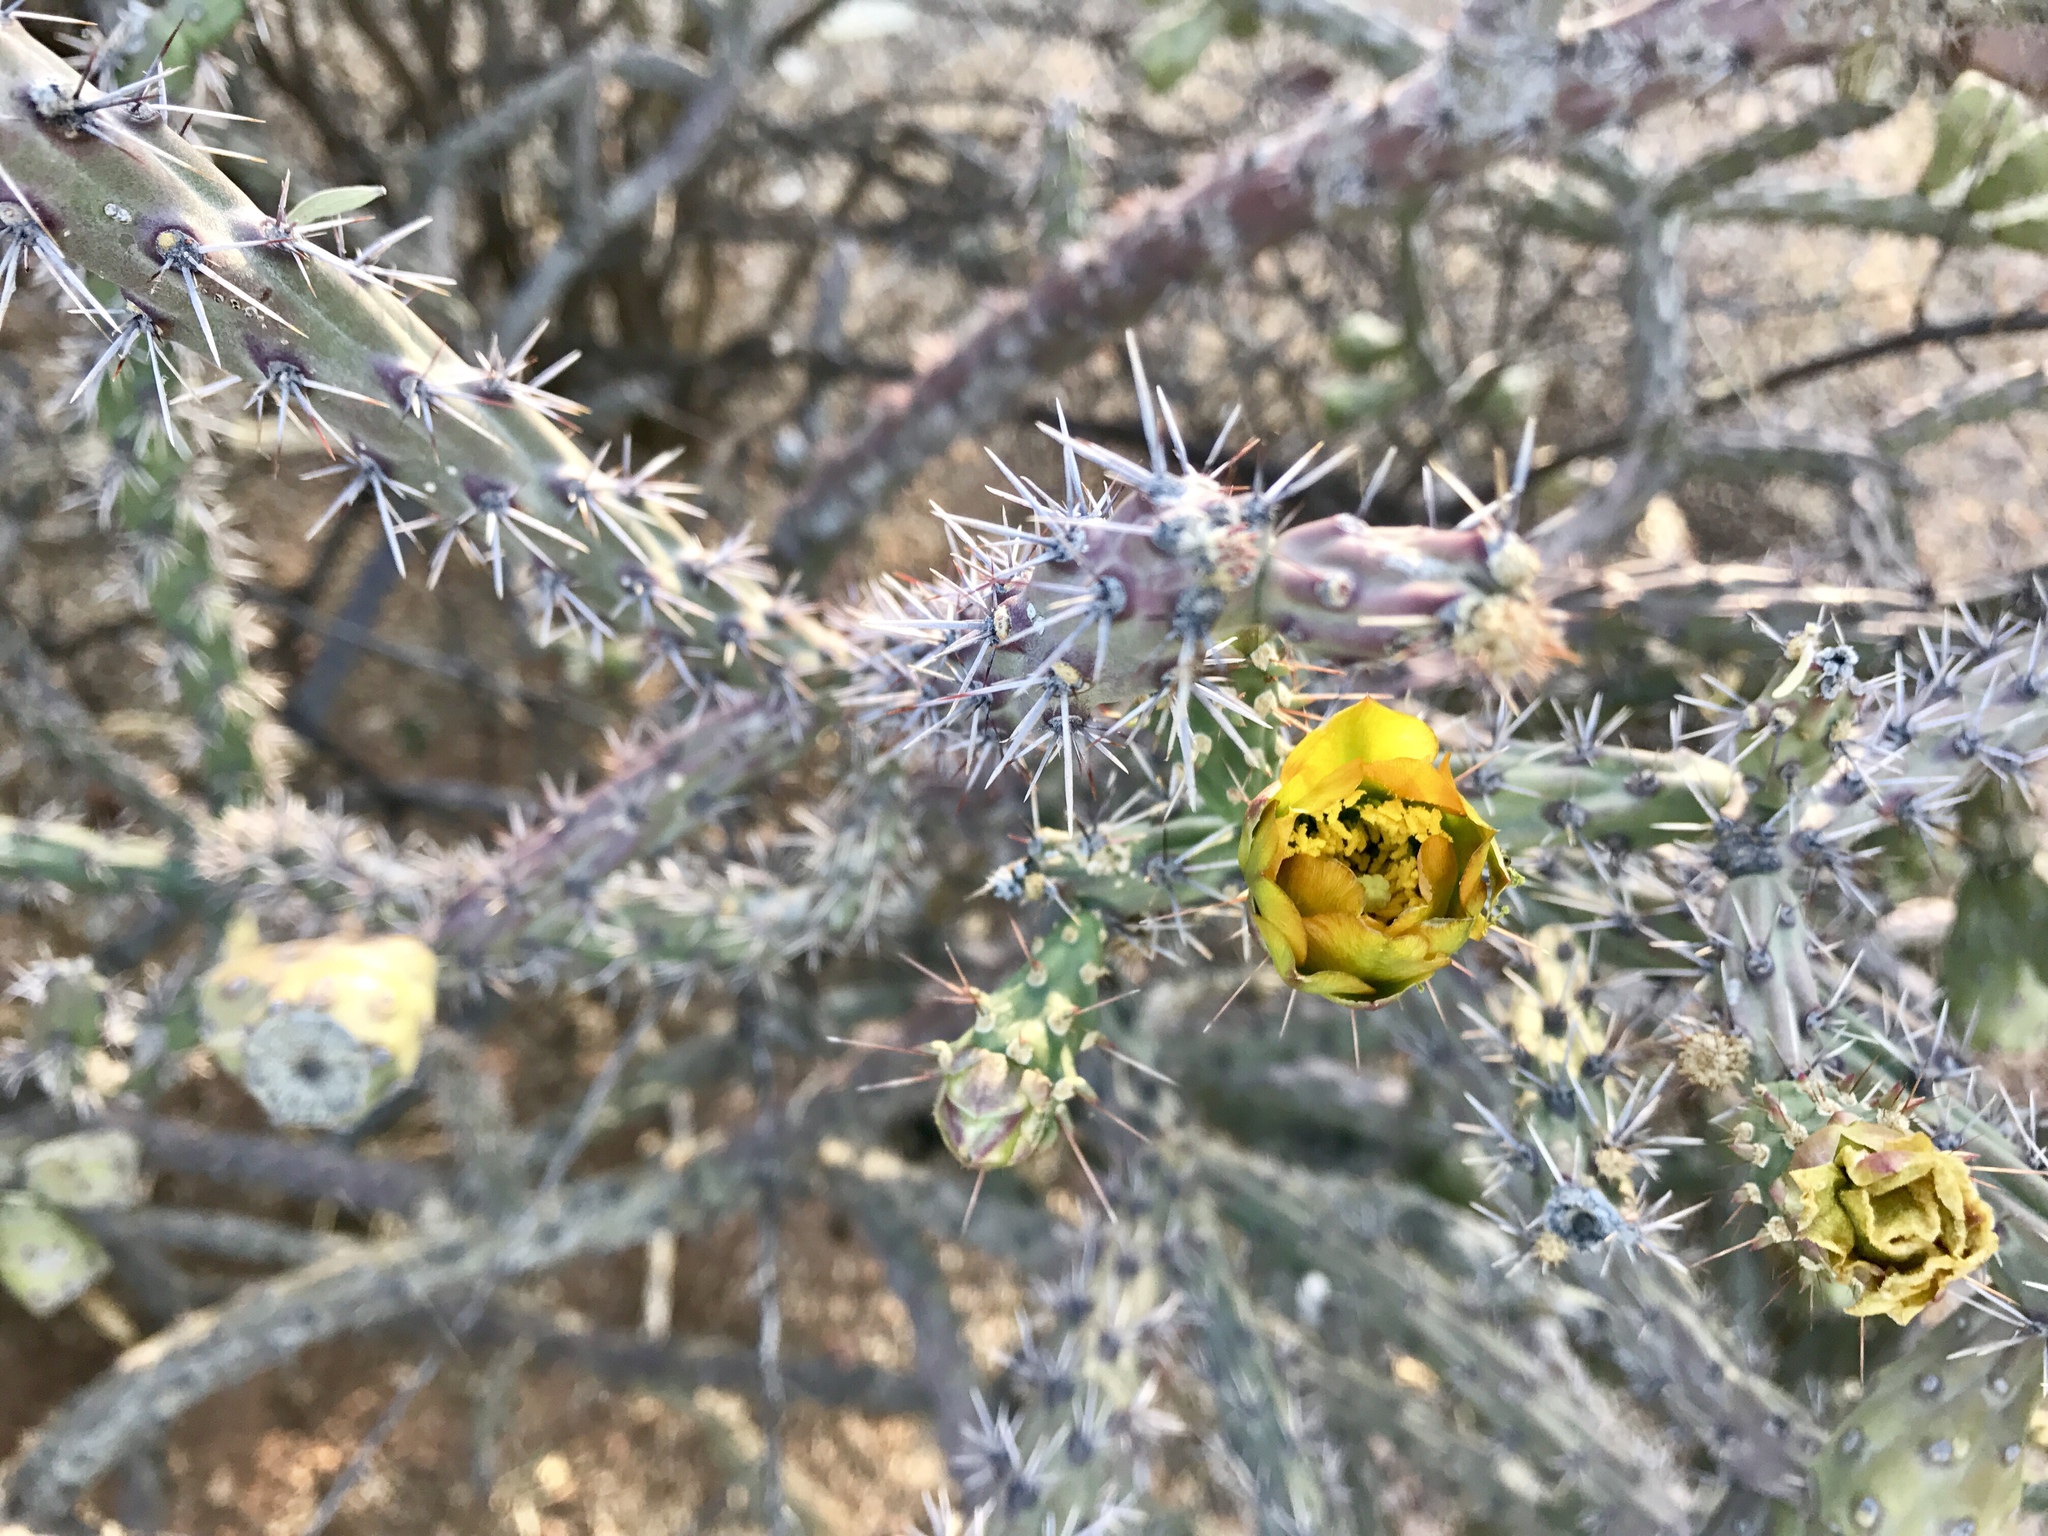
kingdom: Plantae
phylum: Tracheophyta
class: Magnoliopsida
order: Caryophyllales
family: Cactaceae
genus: Cylindropuntia
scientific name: Cylindropuntia thurberi
